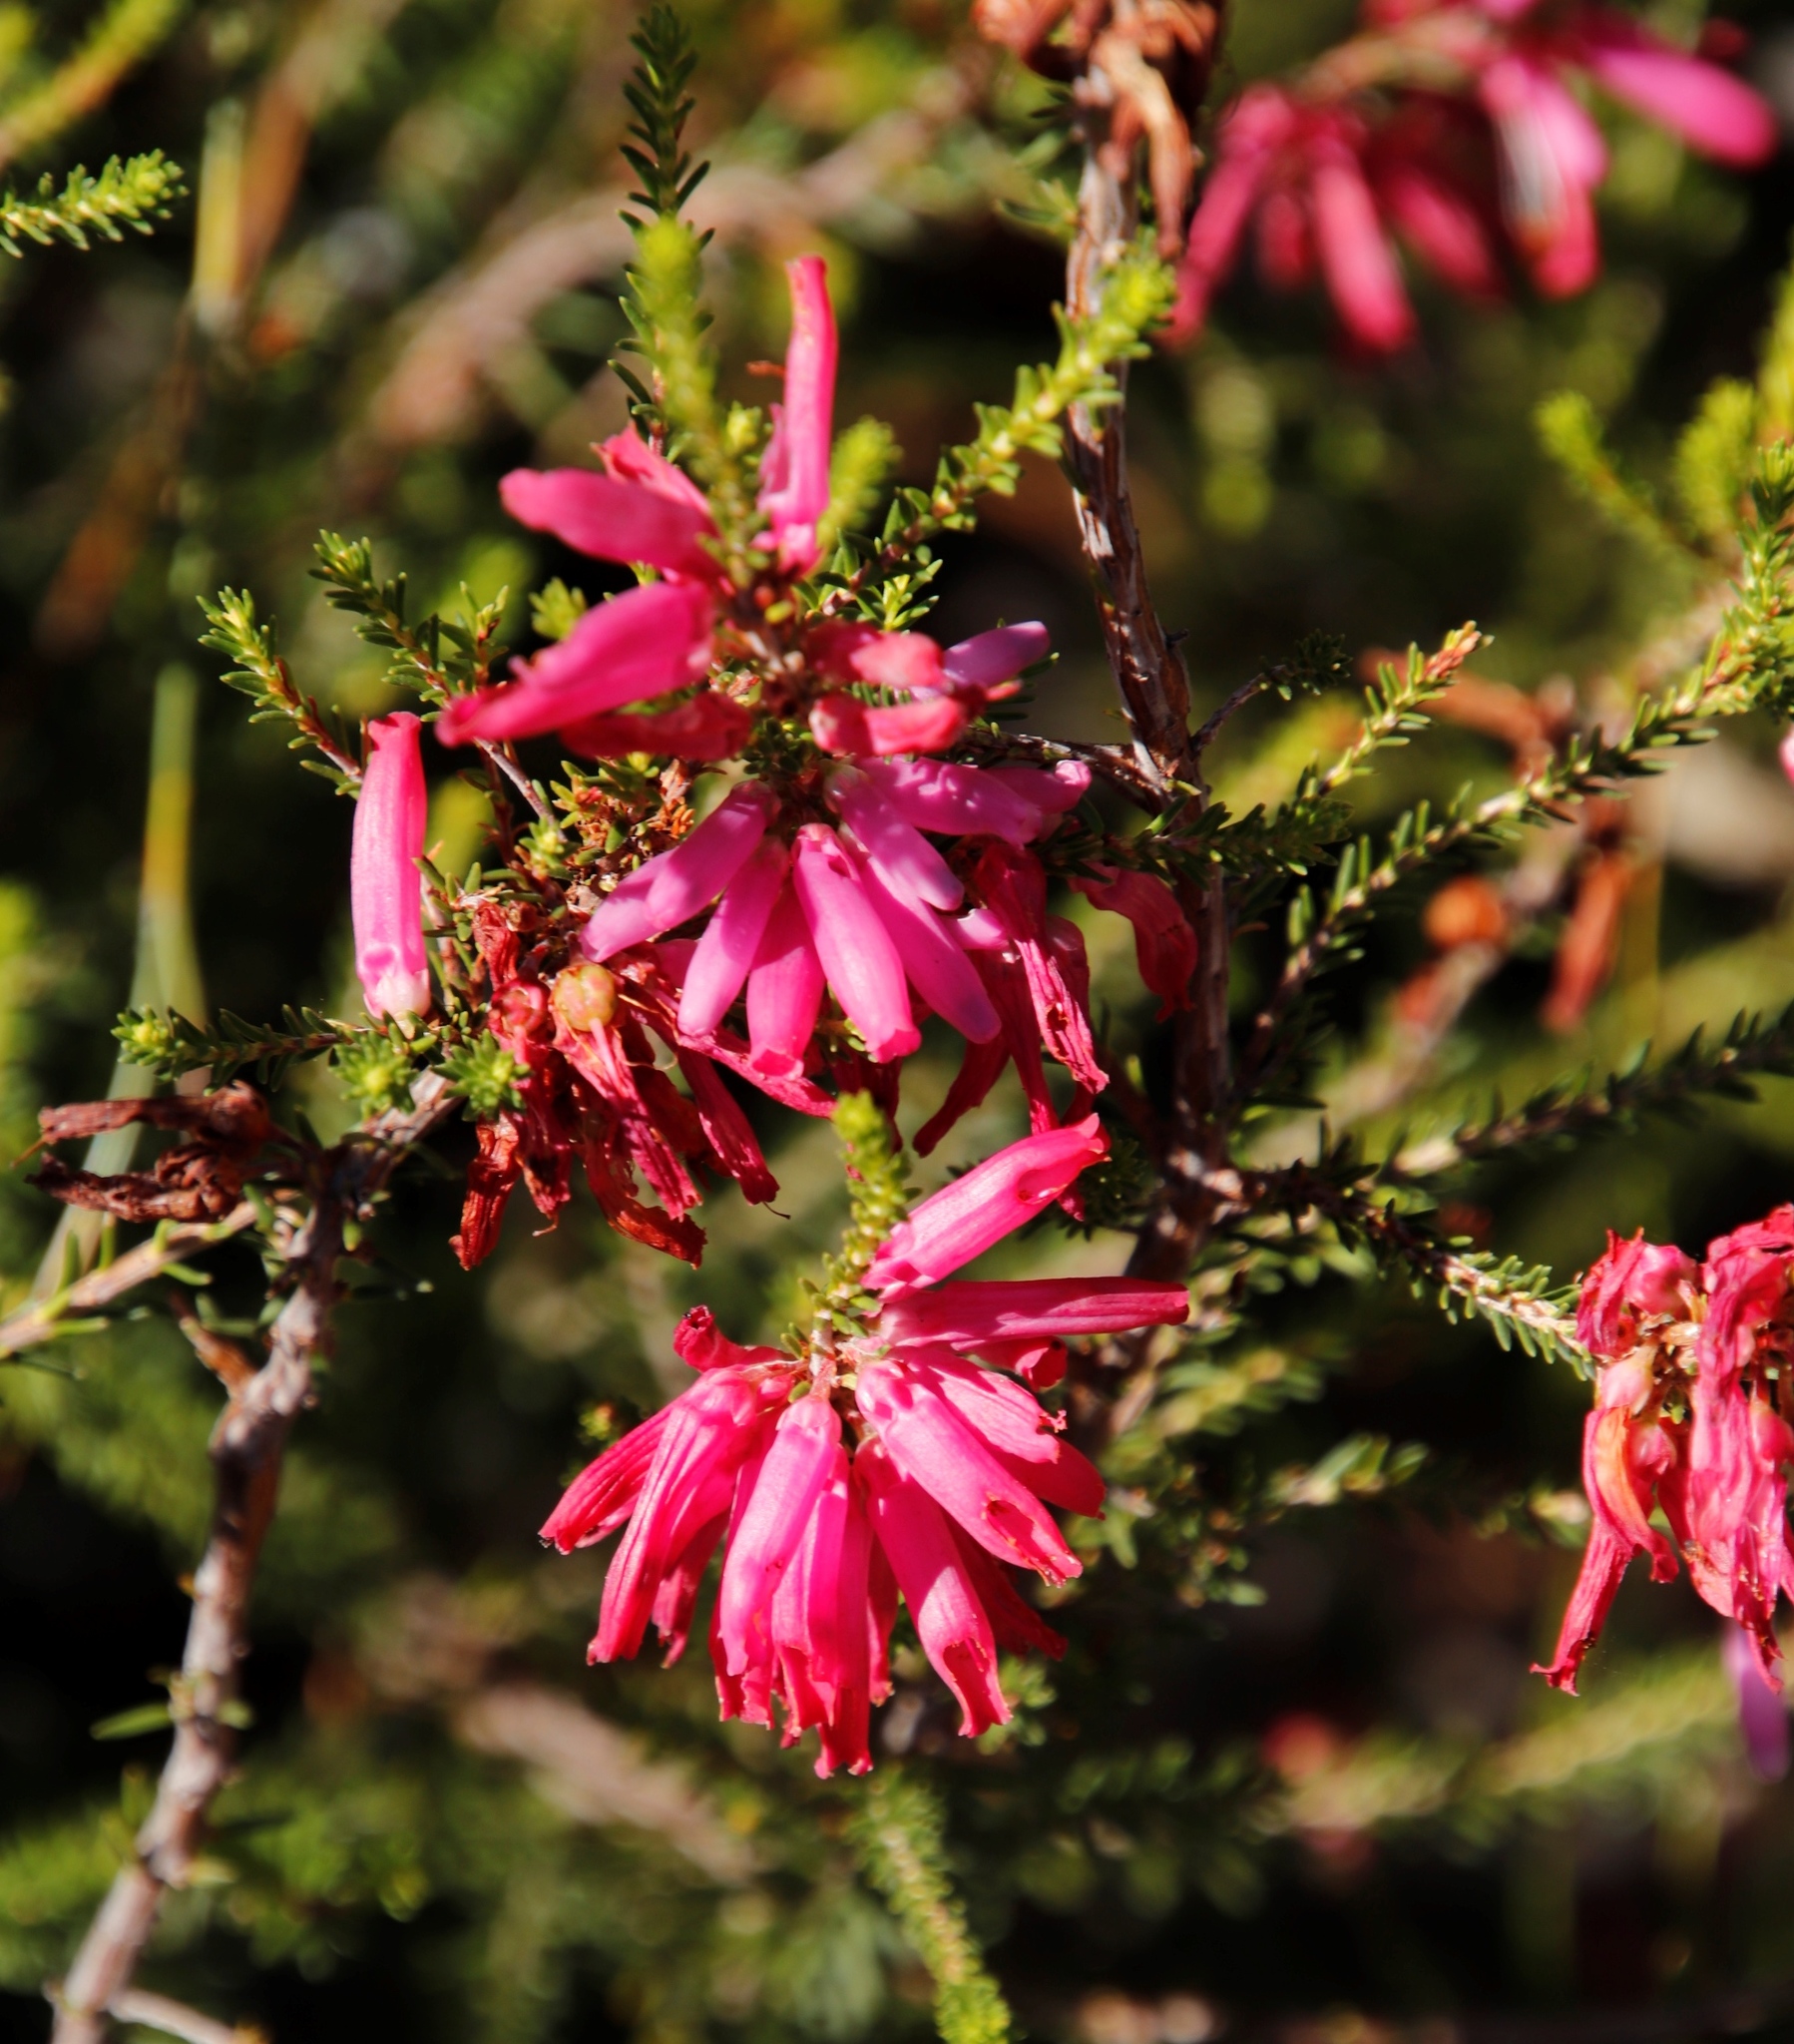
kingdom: Plantae
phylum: Tracheophyta
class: Magnoliopsida
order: Ericales
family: Ericaceae
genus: Erica
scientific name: Erica mammosa
